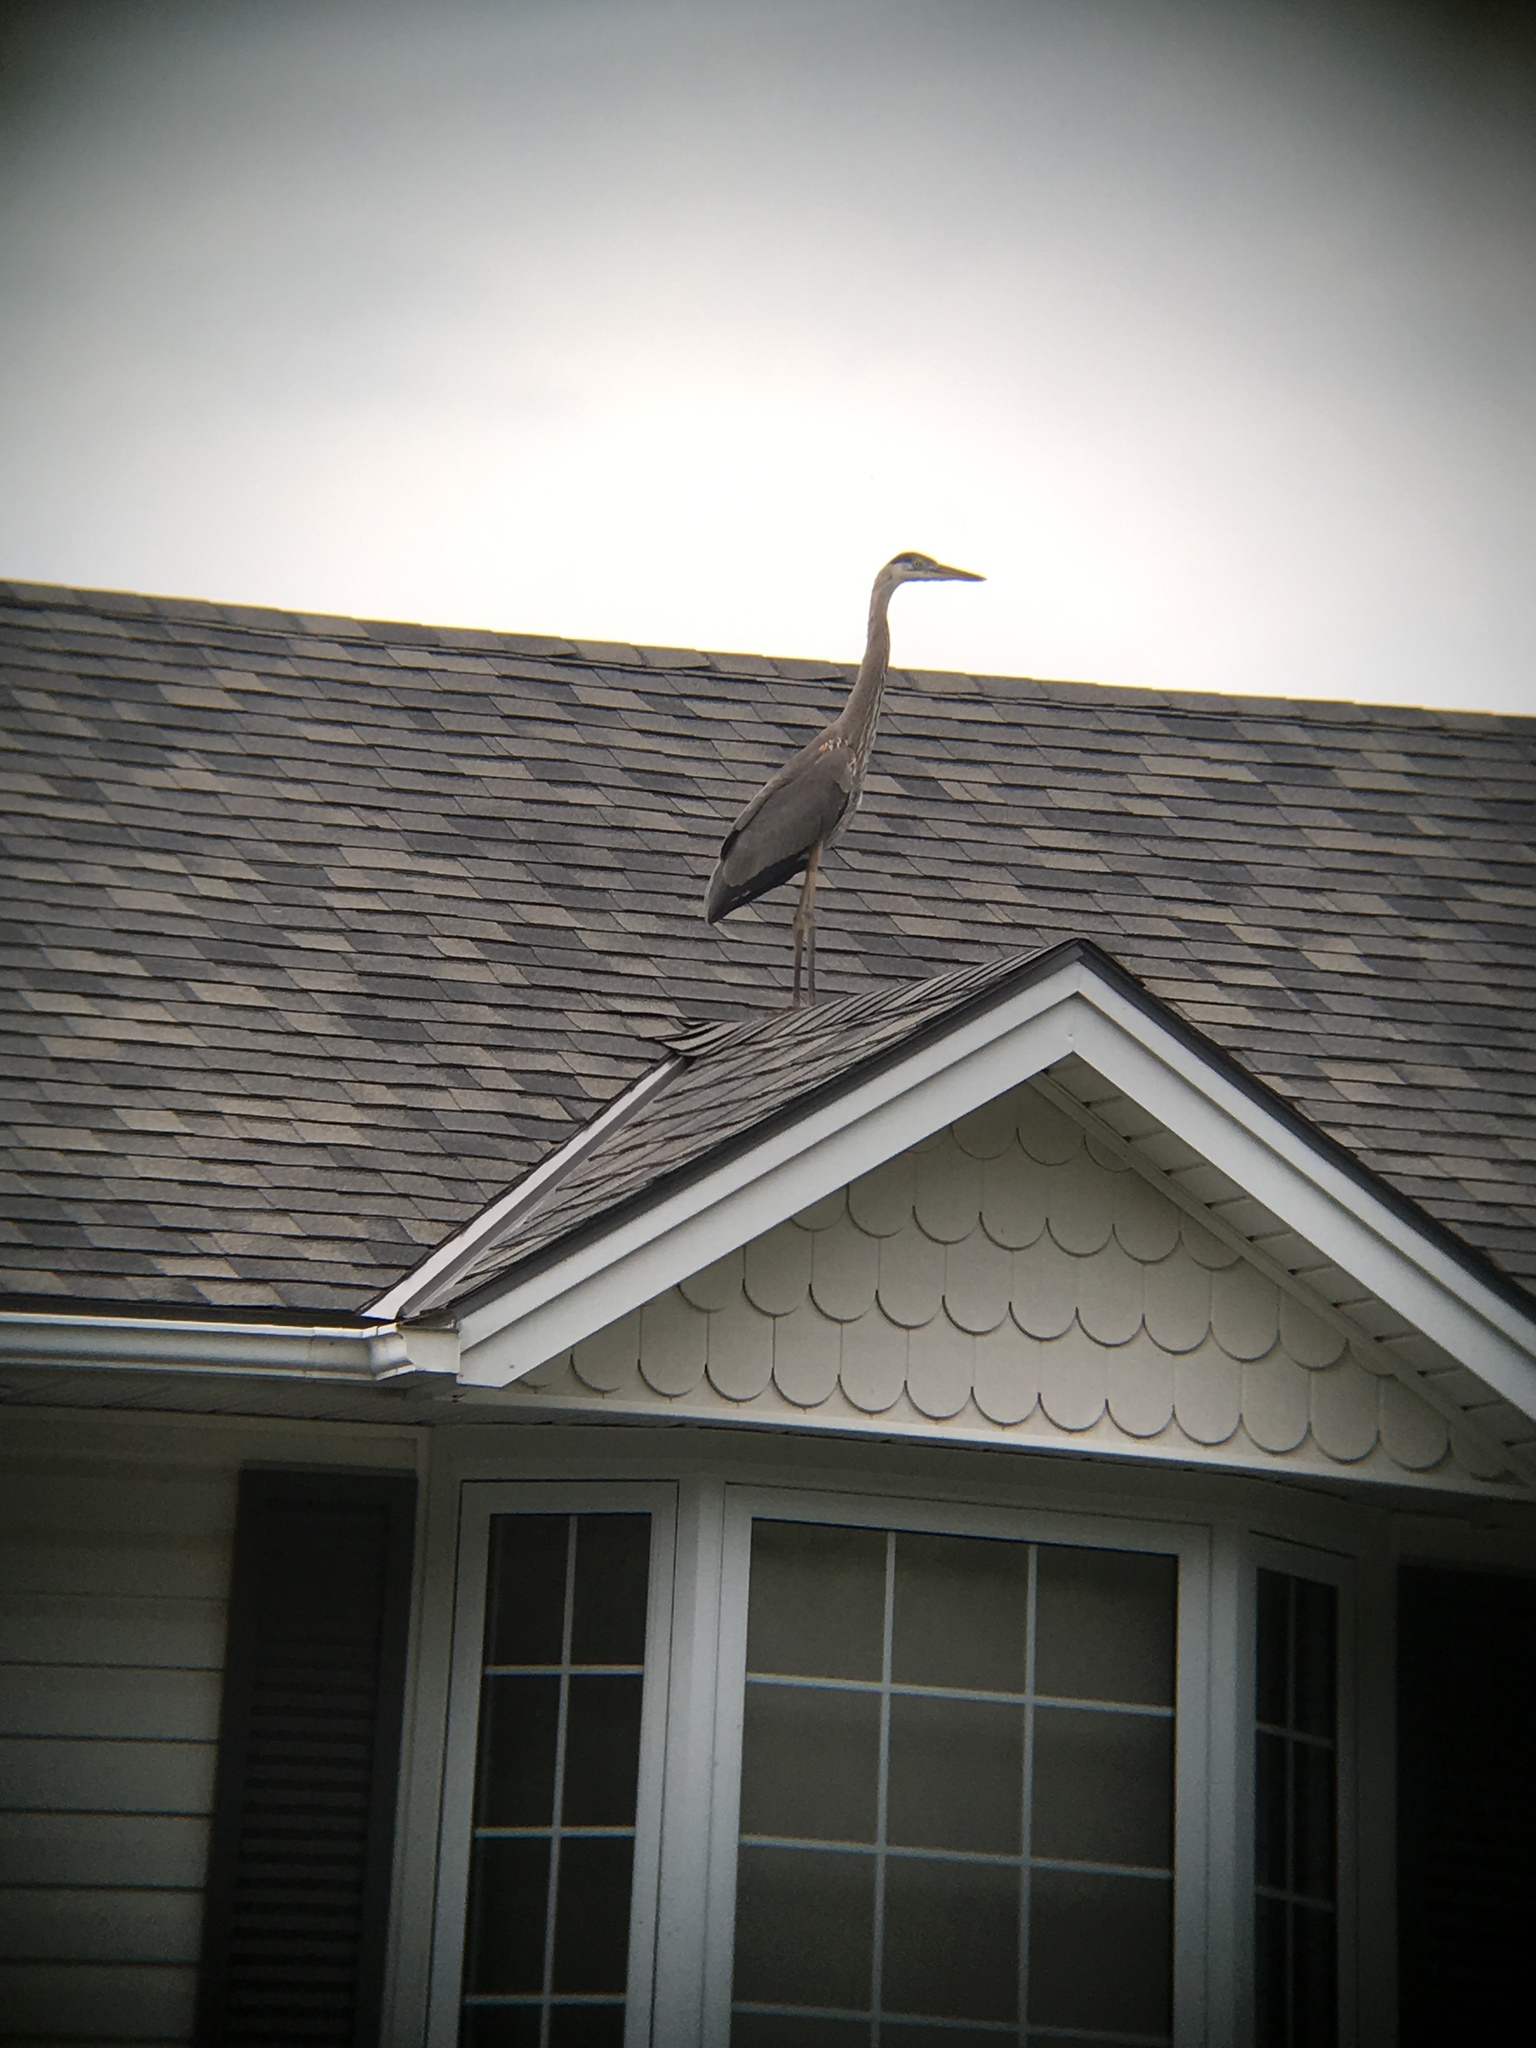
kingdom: Animalia
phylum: Chordata
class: Aves
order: Pelecaniformes
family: Ardeidae
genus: Ardea
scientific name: Ardea herodias
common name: Great blue heron
